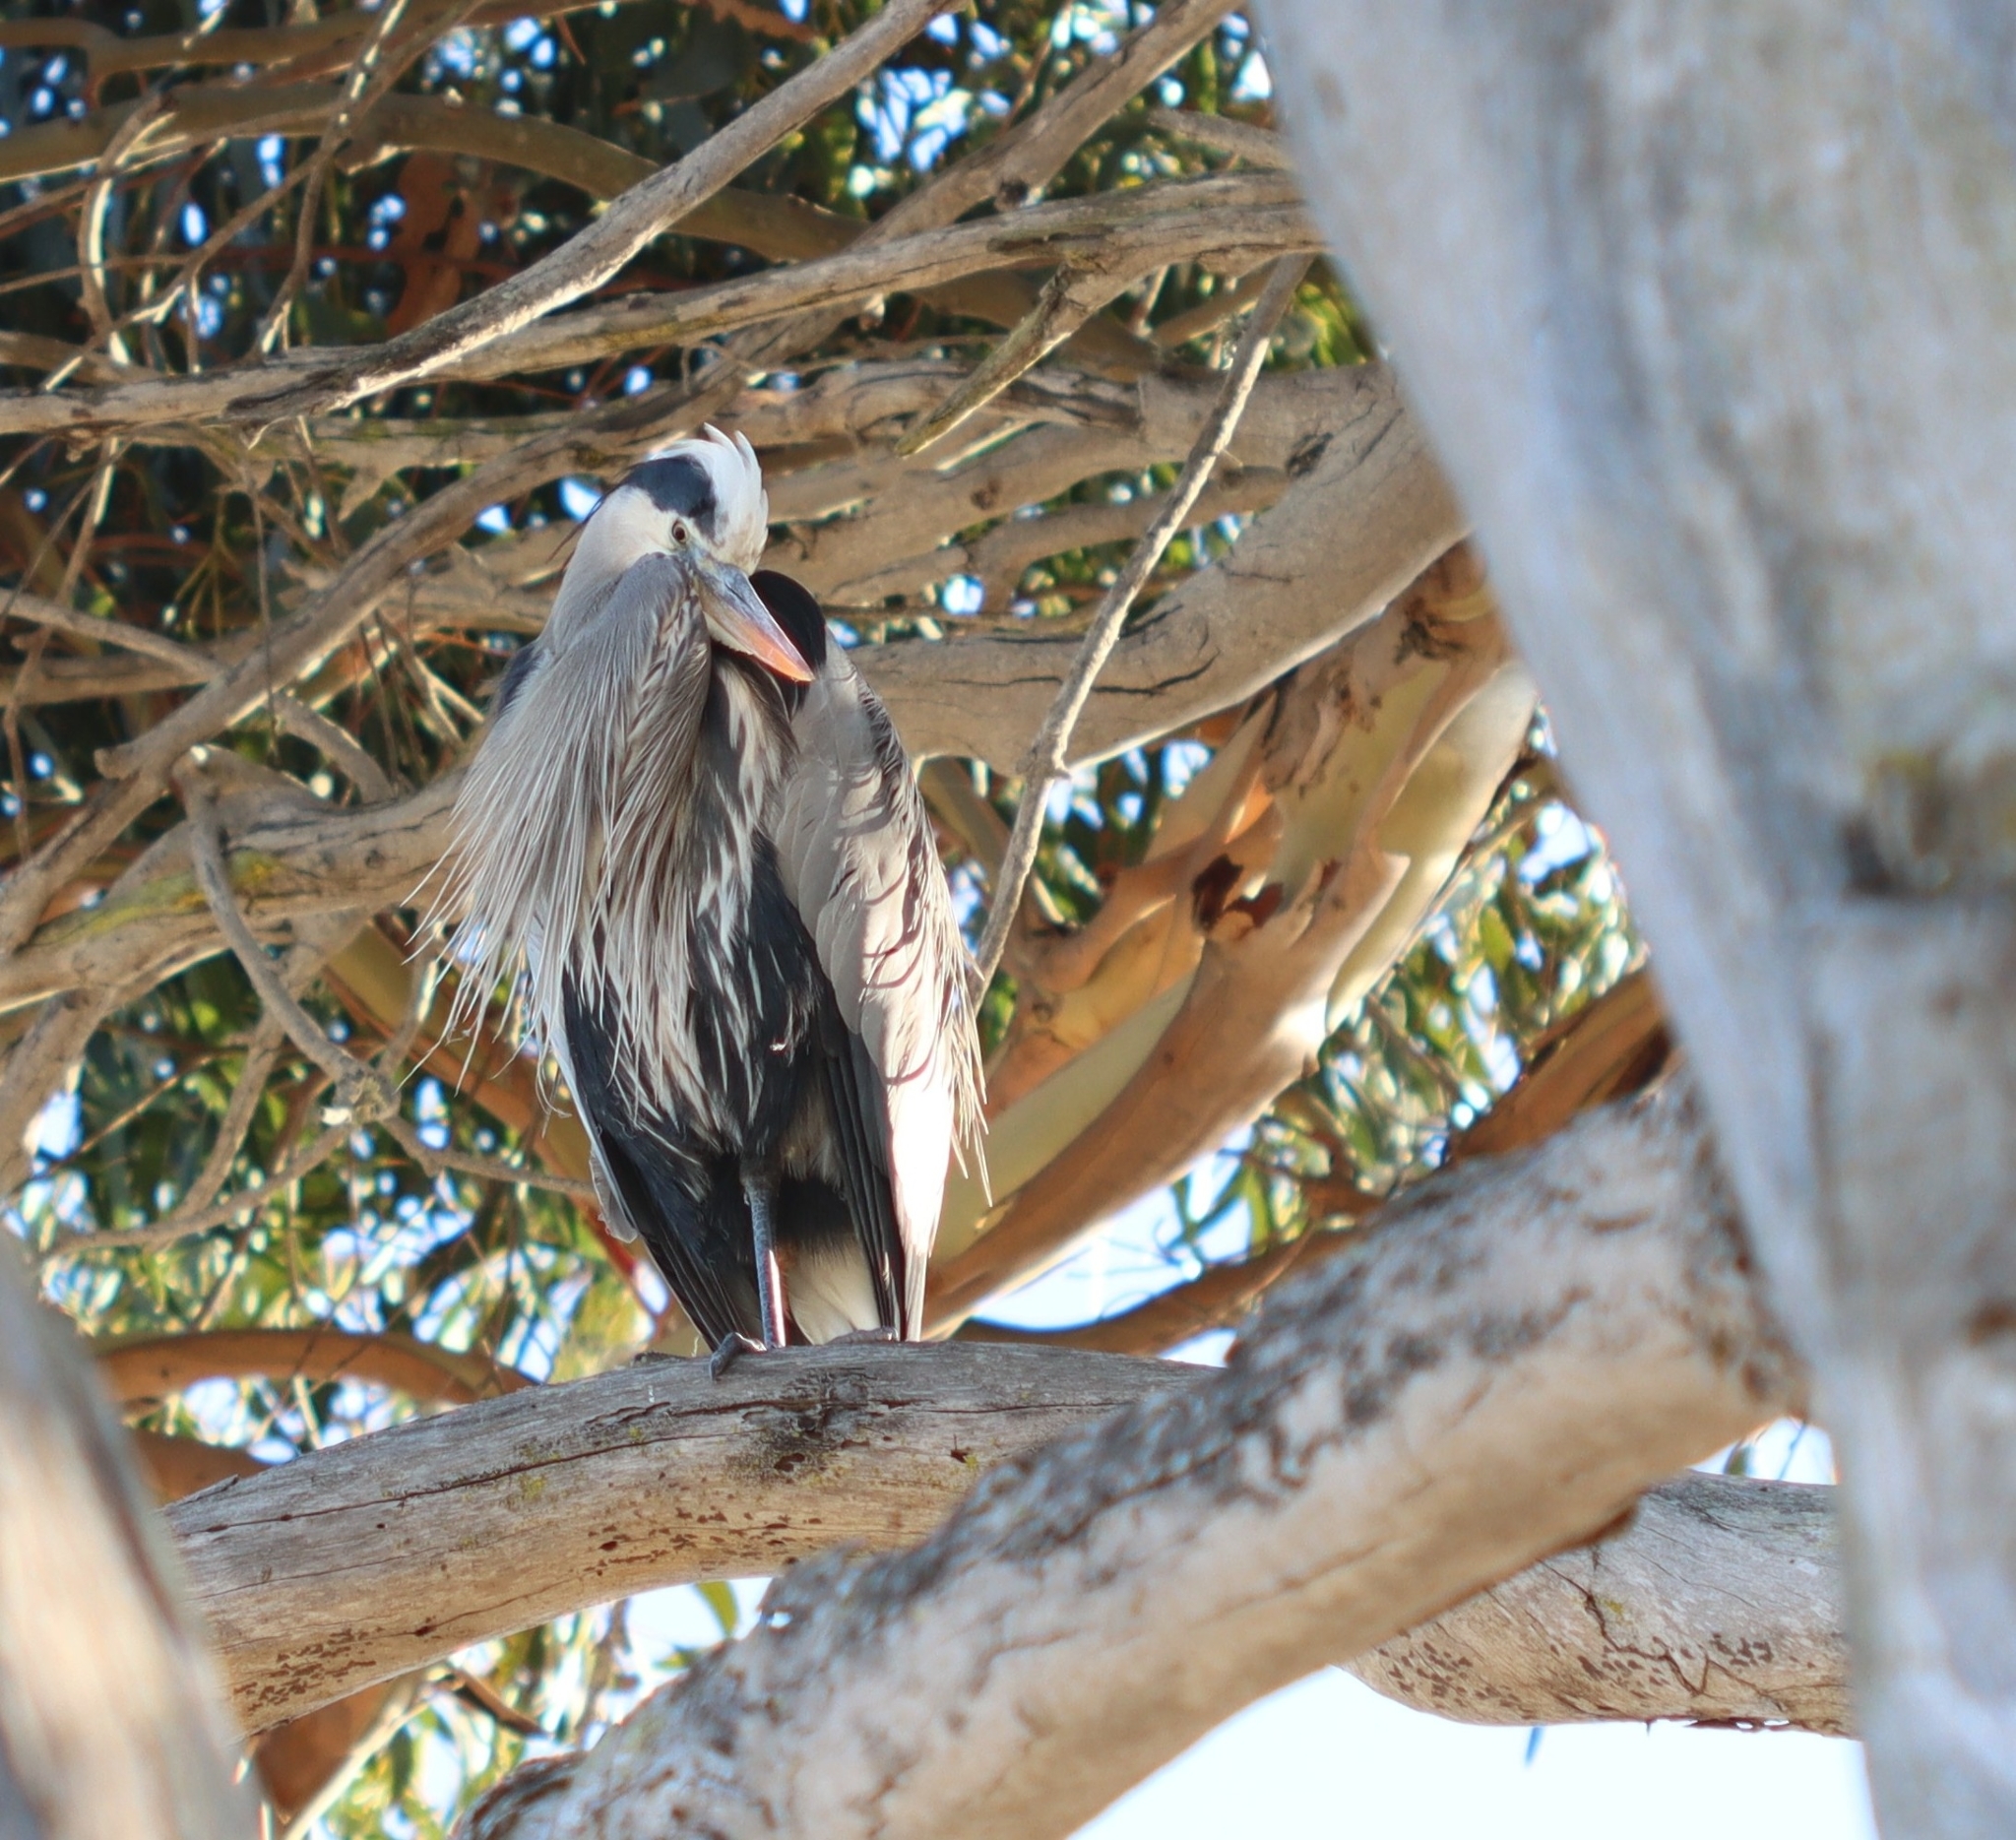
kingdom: Animalia
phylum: Chordata
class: Aves
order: Pelecaniformes
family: Ardeidae
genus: Ardea
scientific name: Ardea herodias
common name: Great blue heron
